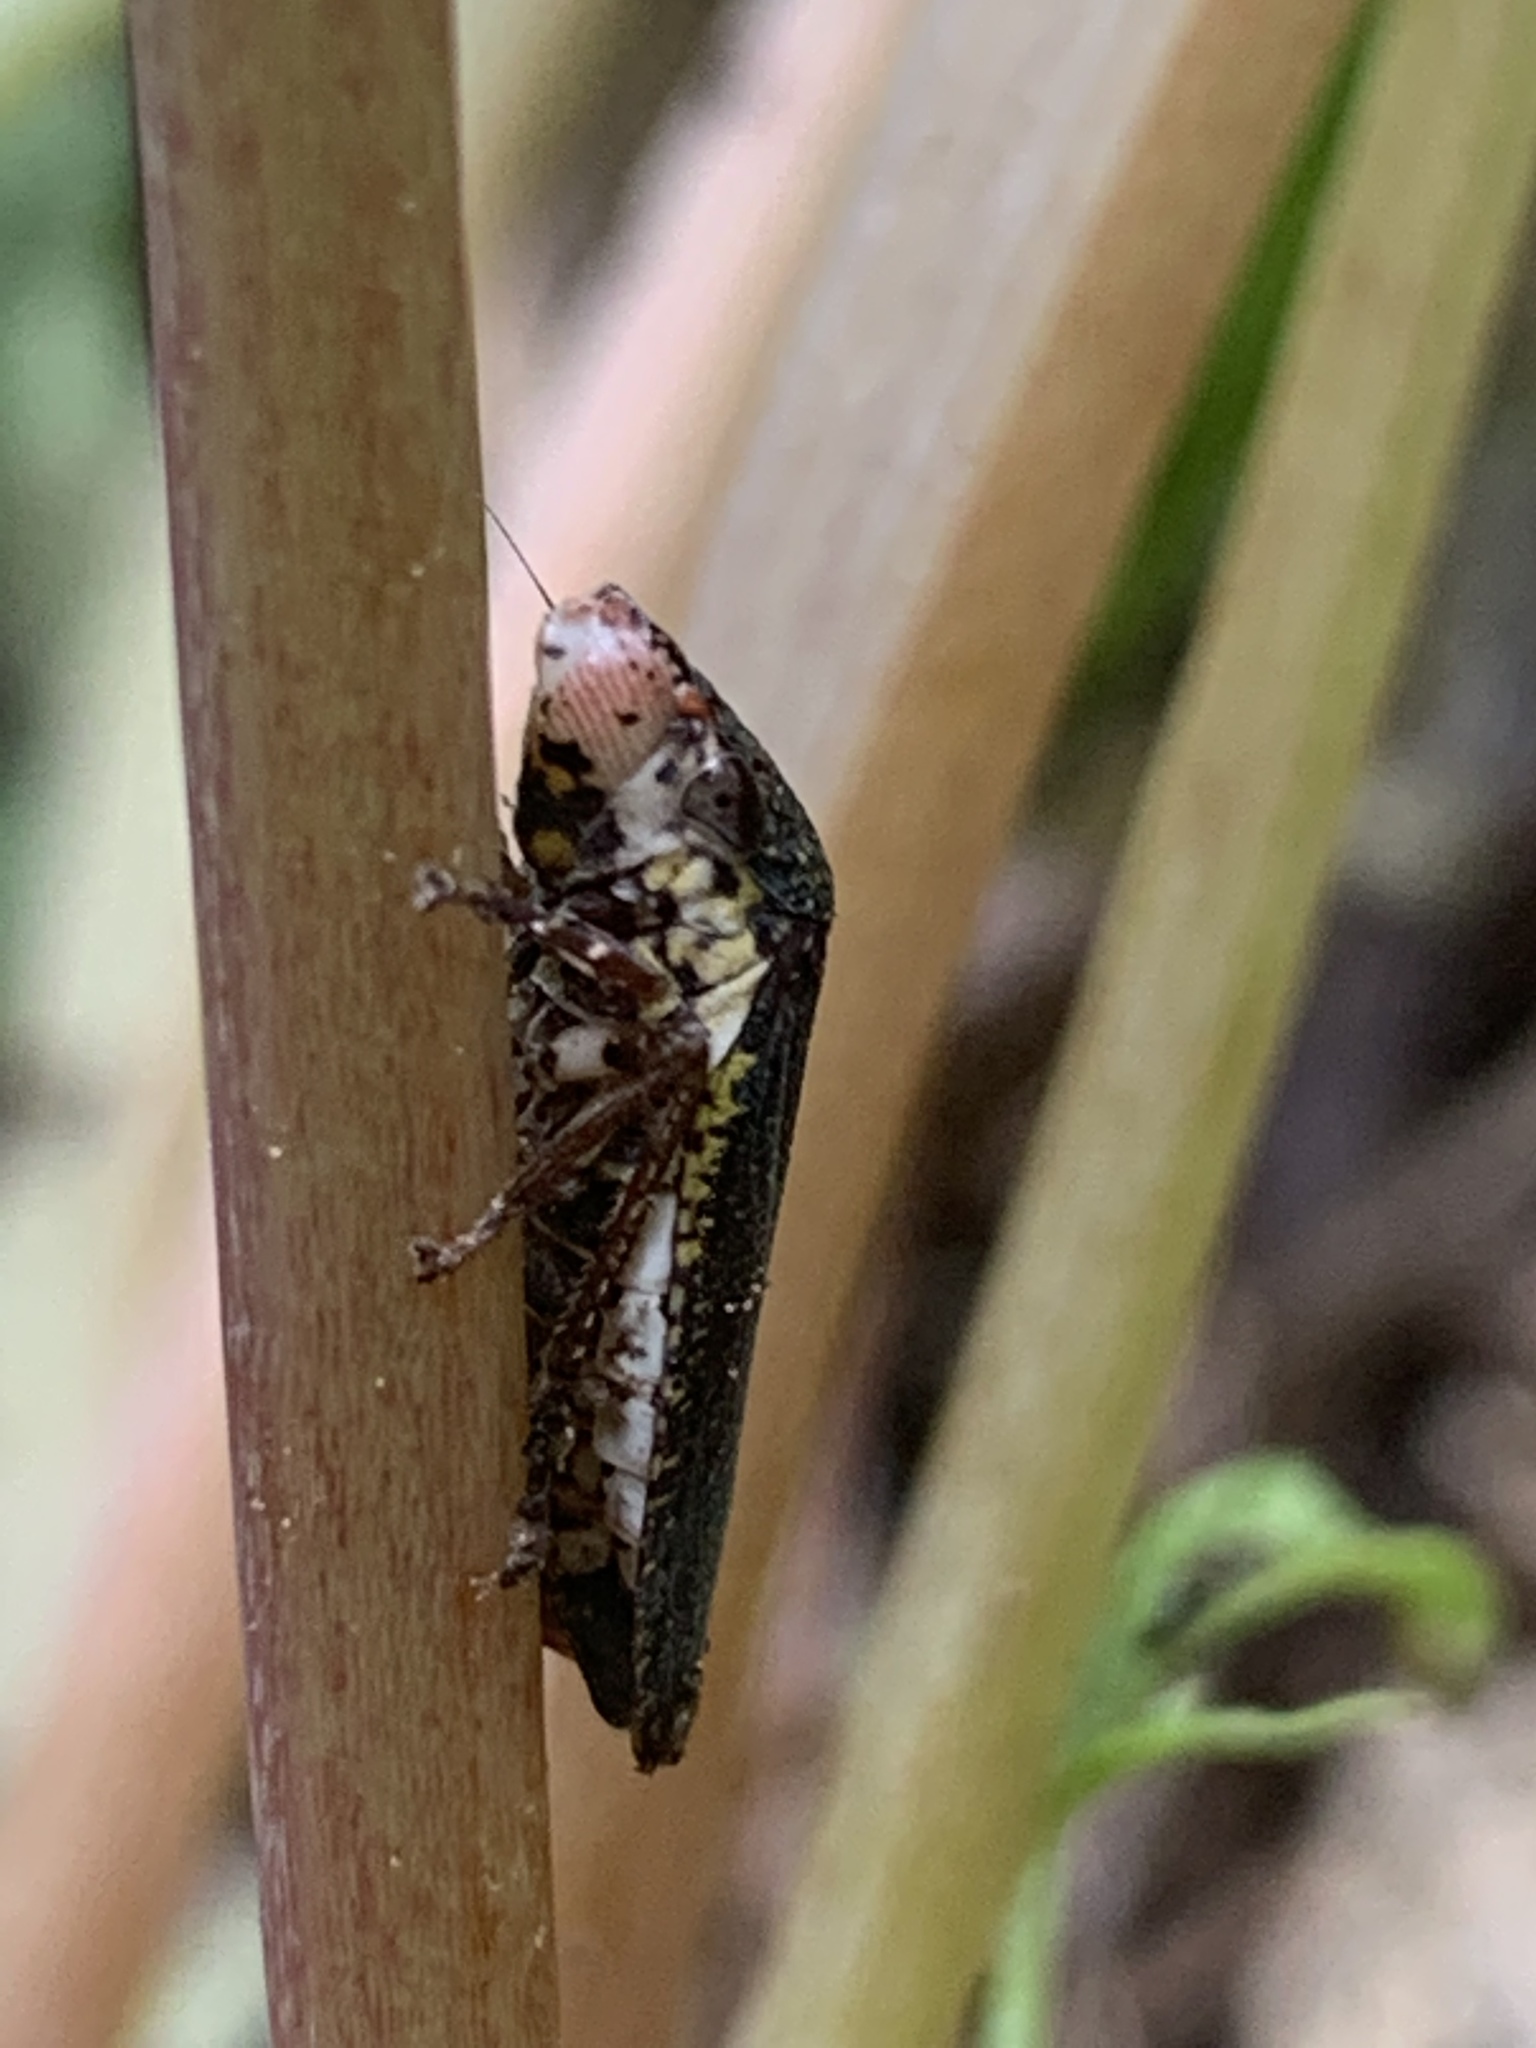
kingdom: Animalia
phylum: Arthropoda
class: Insecta
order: Hemiptera
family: Cicadellidae
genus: Paraulacizes
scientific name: Paraulacizes irrorata
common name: Speckled sharpshooter
